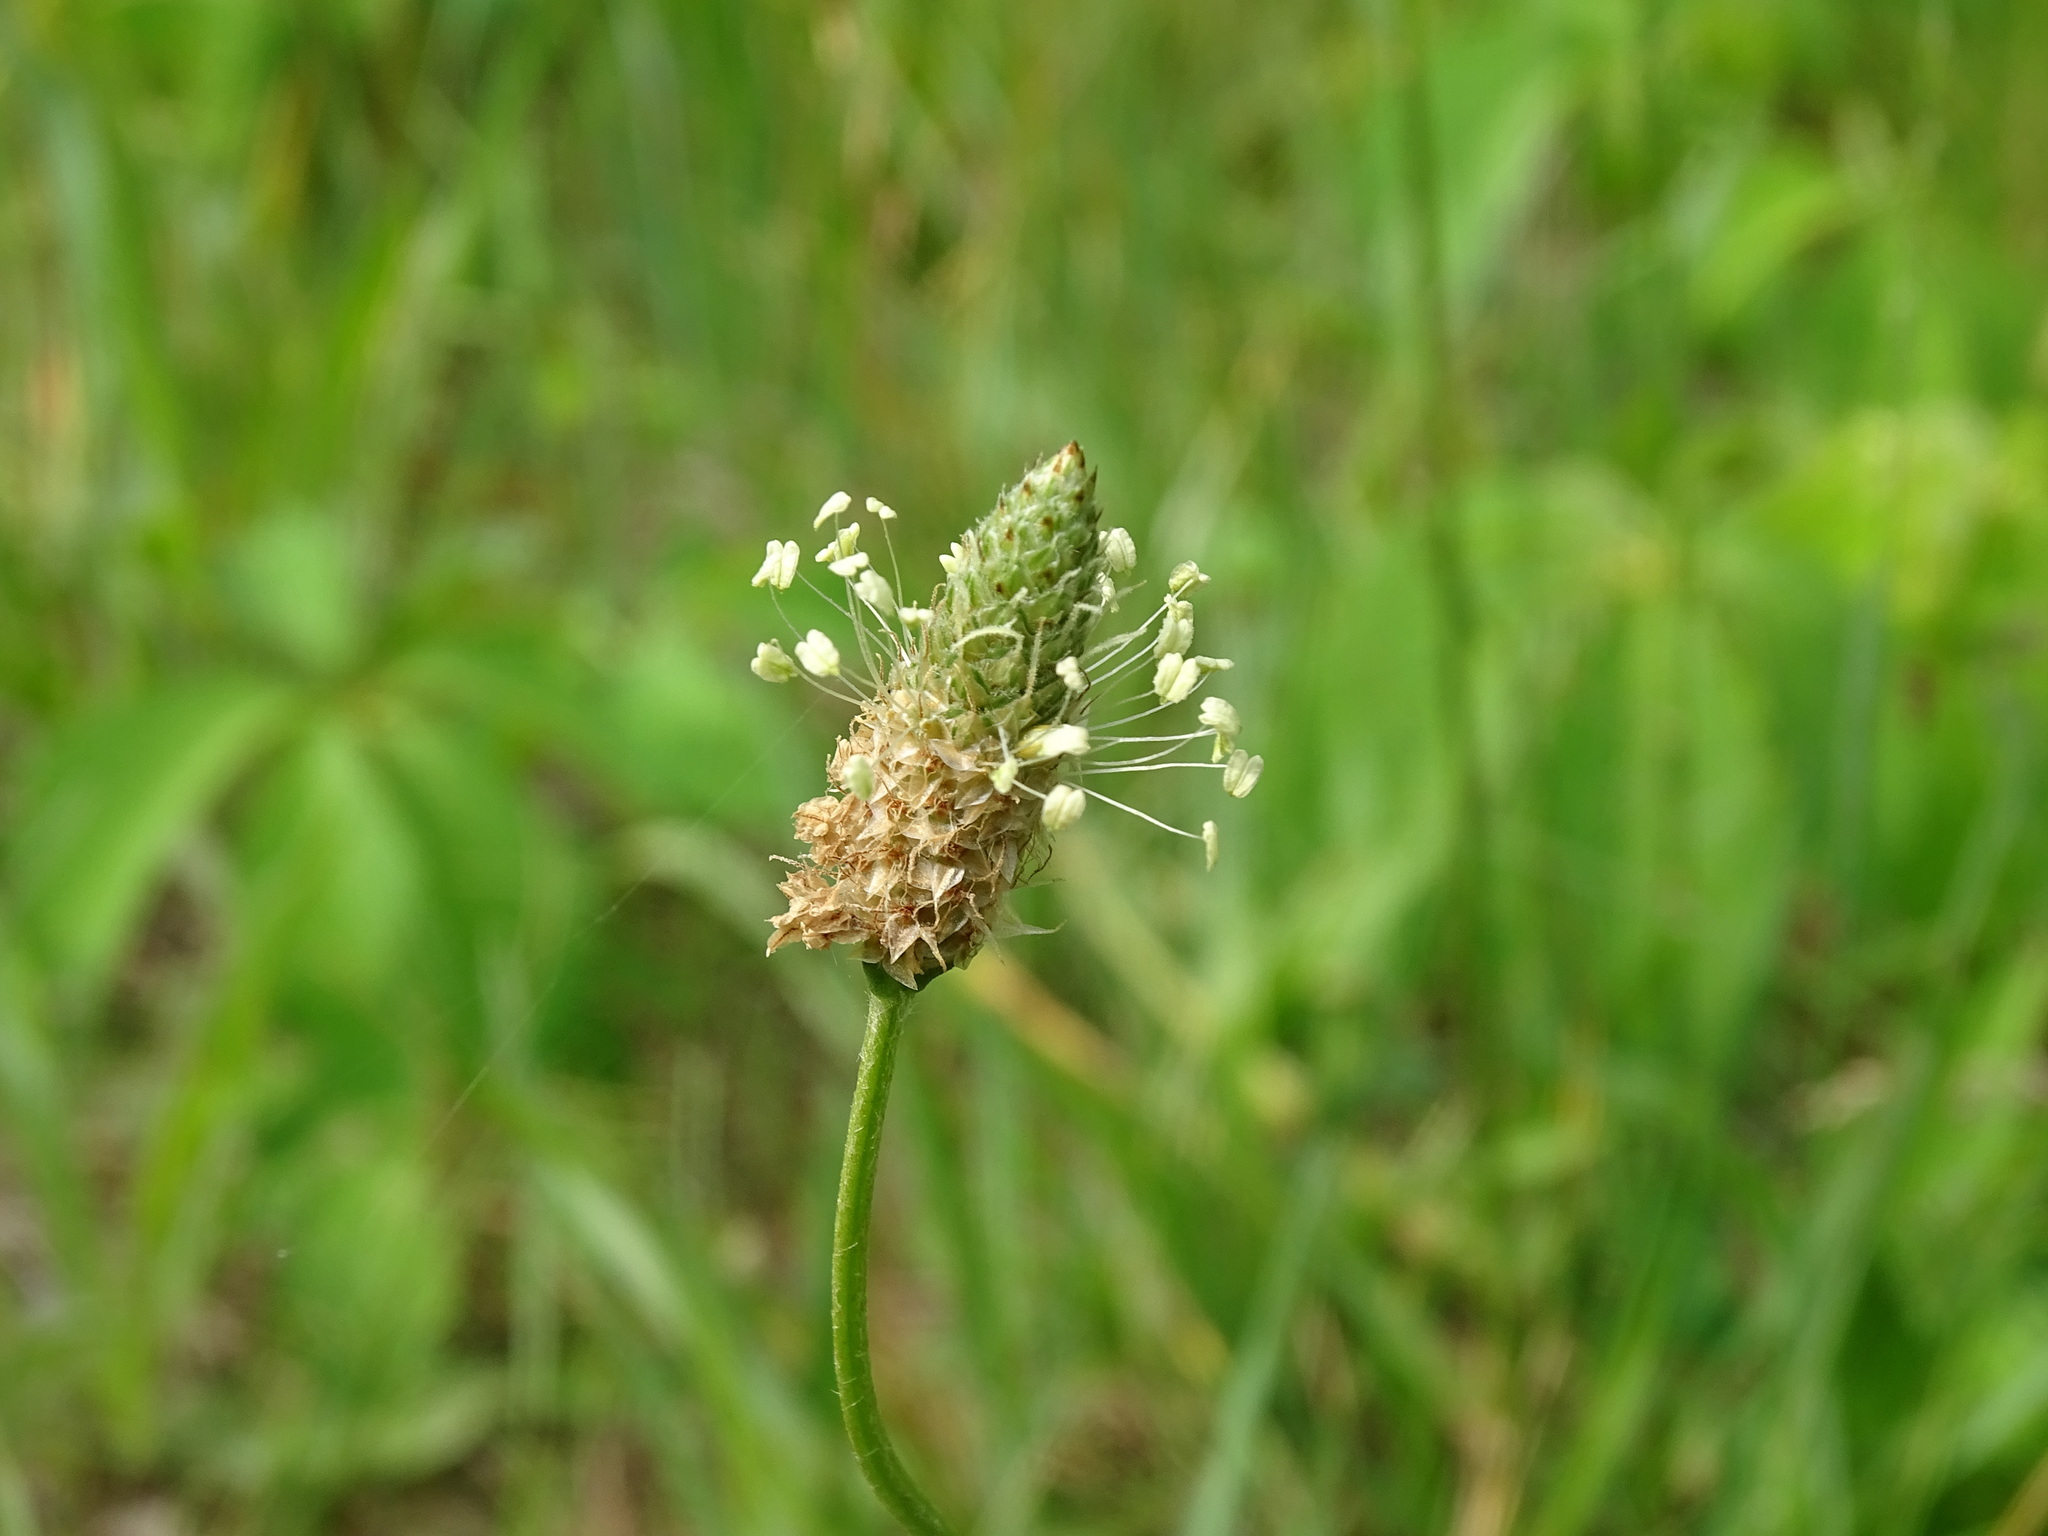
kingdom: Plantae
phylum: Tracheophyta
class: Magnoliopsida
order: Lamiales
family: Plantaginaceae
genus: Plantago
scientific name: Plantago lanceolata
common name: Ribwort plantain
